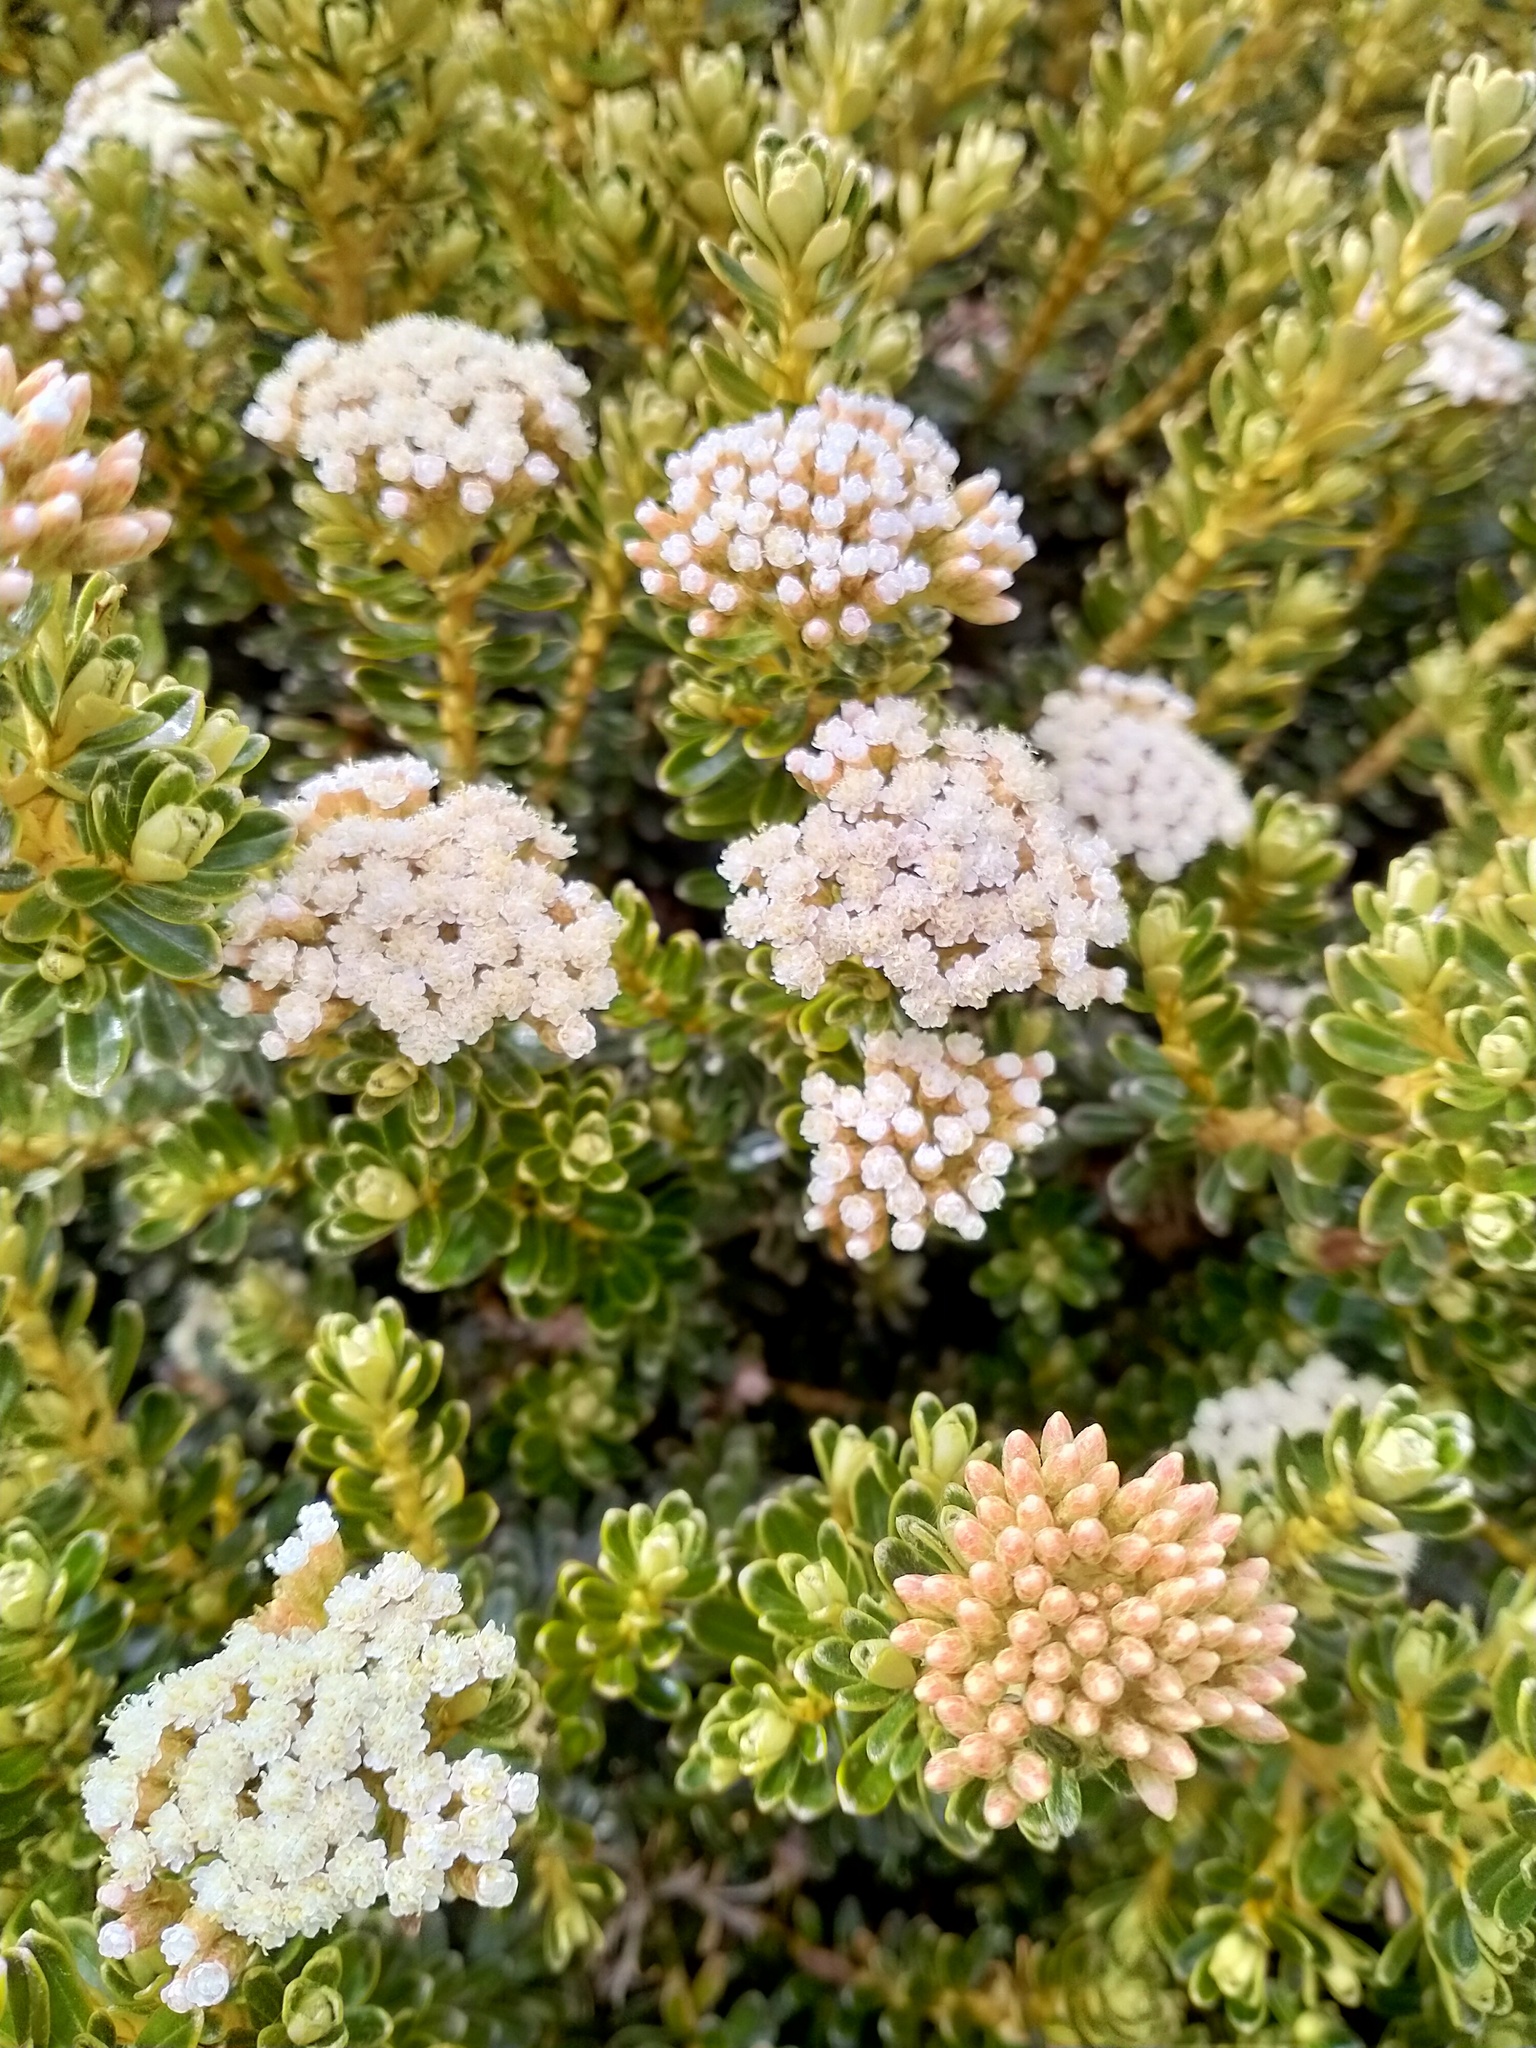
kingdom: Plantae
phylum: Tracheophyta
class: Magnoliopsida
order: Asterales
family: Asteraceae
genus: Ozothamnus
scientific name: Ozothamnus leptophyllus
